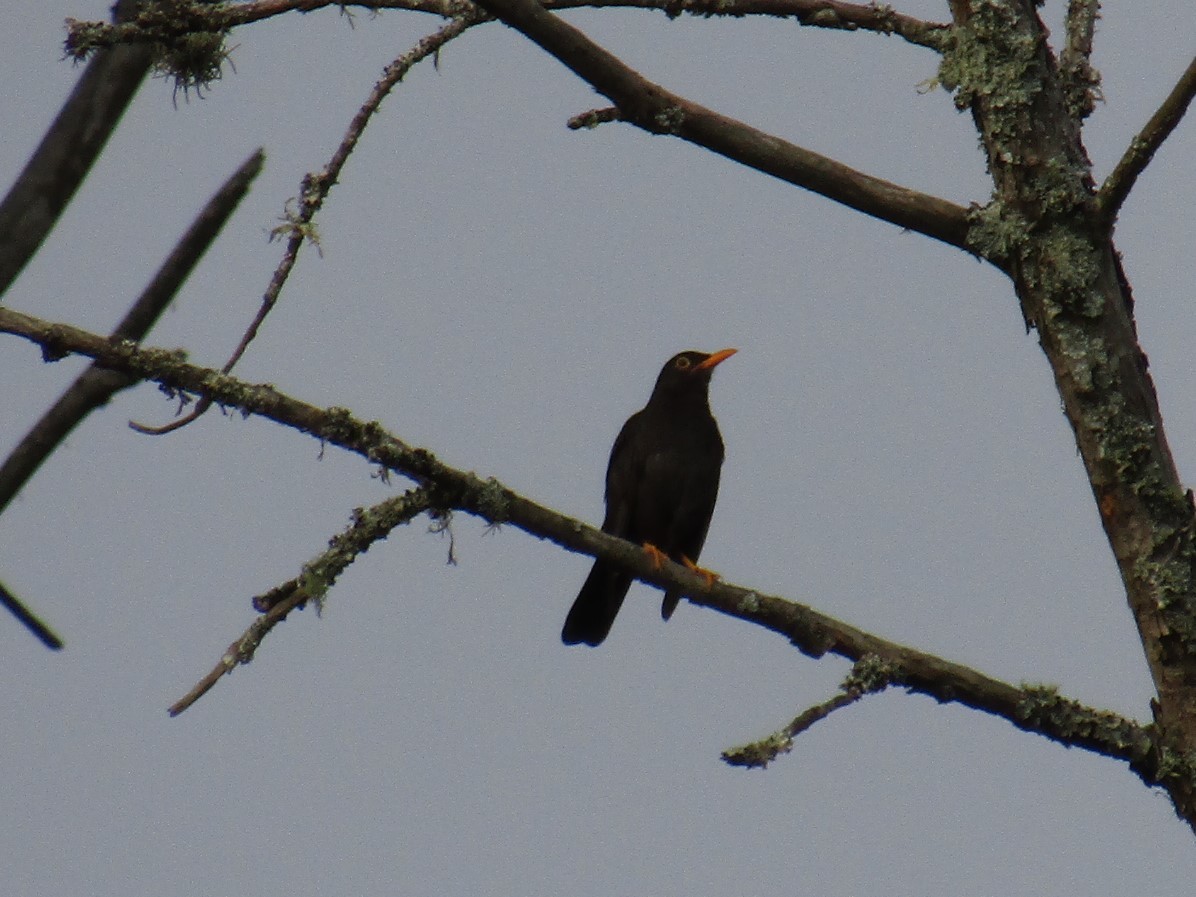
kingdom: Animalia
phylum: Chordata
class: Aves
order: Passeriformes
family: Turdidae
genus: Turdus
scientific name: Turdus chiguanco
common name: Chiguanco thrush
